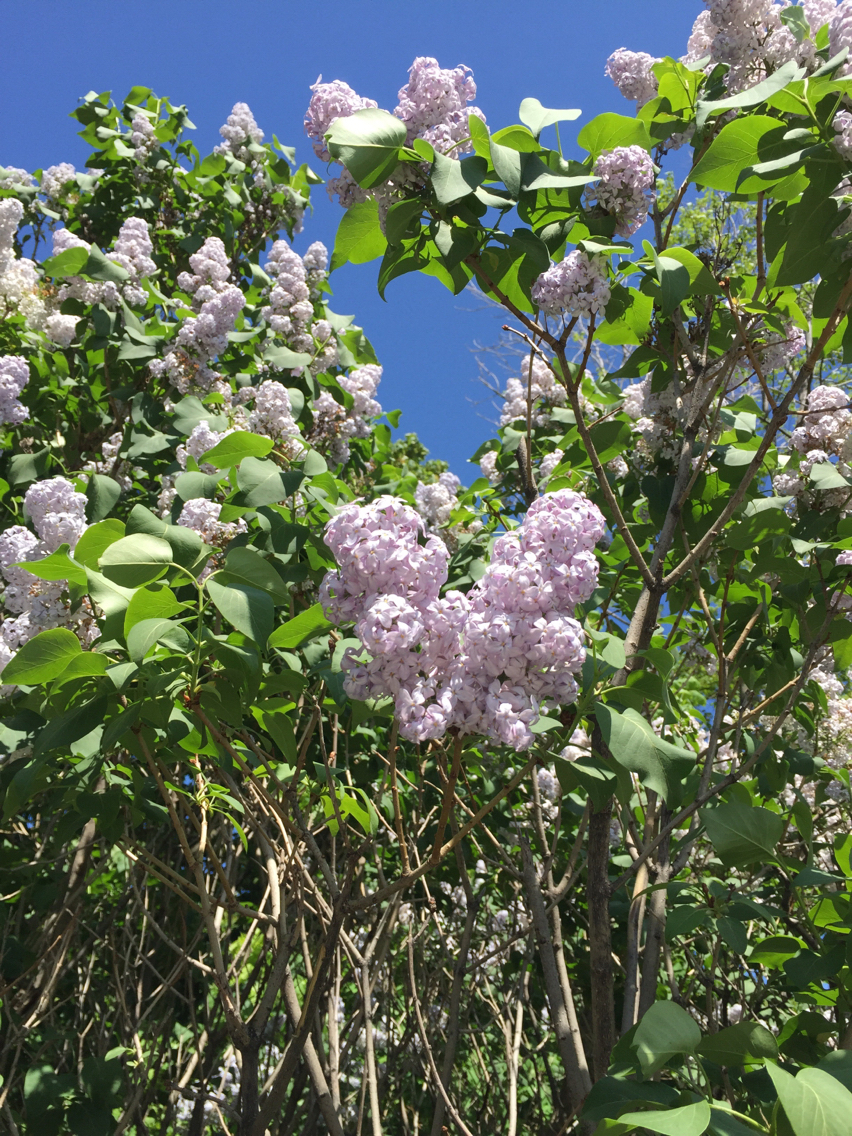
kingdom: Plantae
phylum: Tracheophyta
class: Magnoliopsida
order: Lamiales
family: Oleaceae
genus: Syringa
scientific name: Syringa vulgaris
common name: Common lilac
